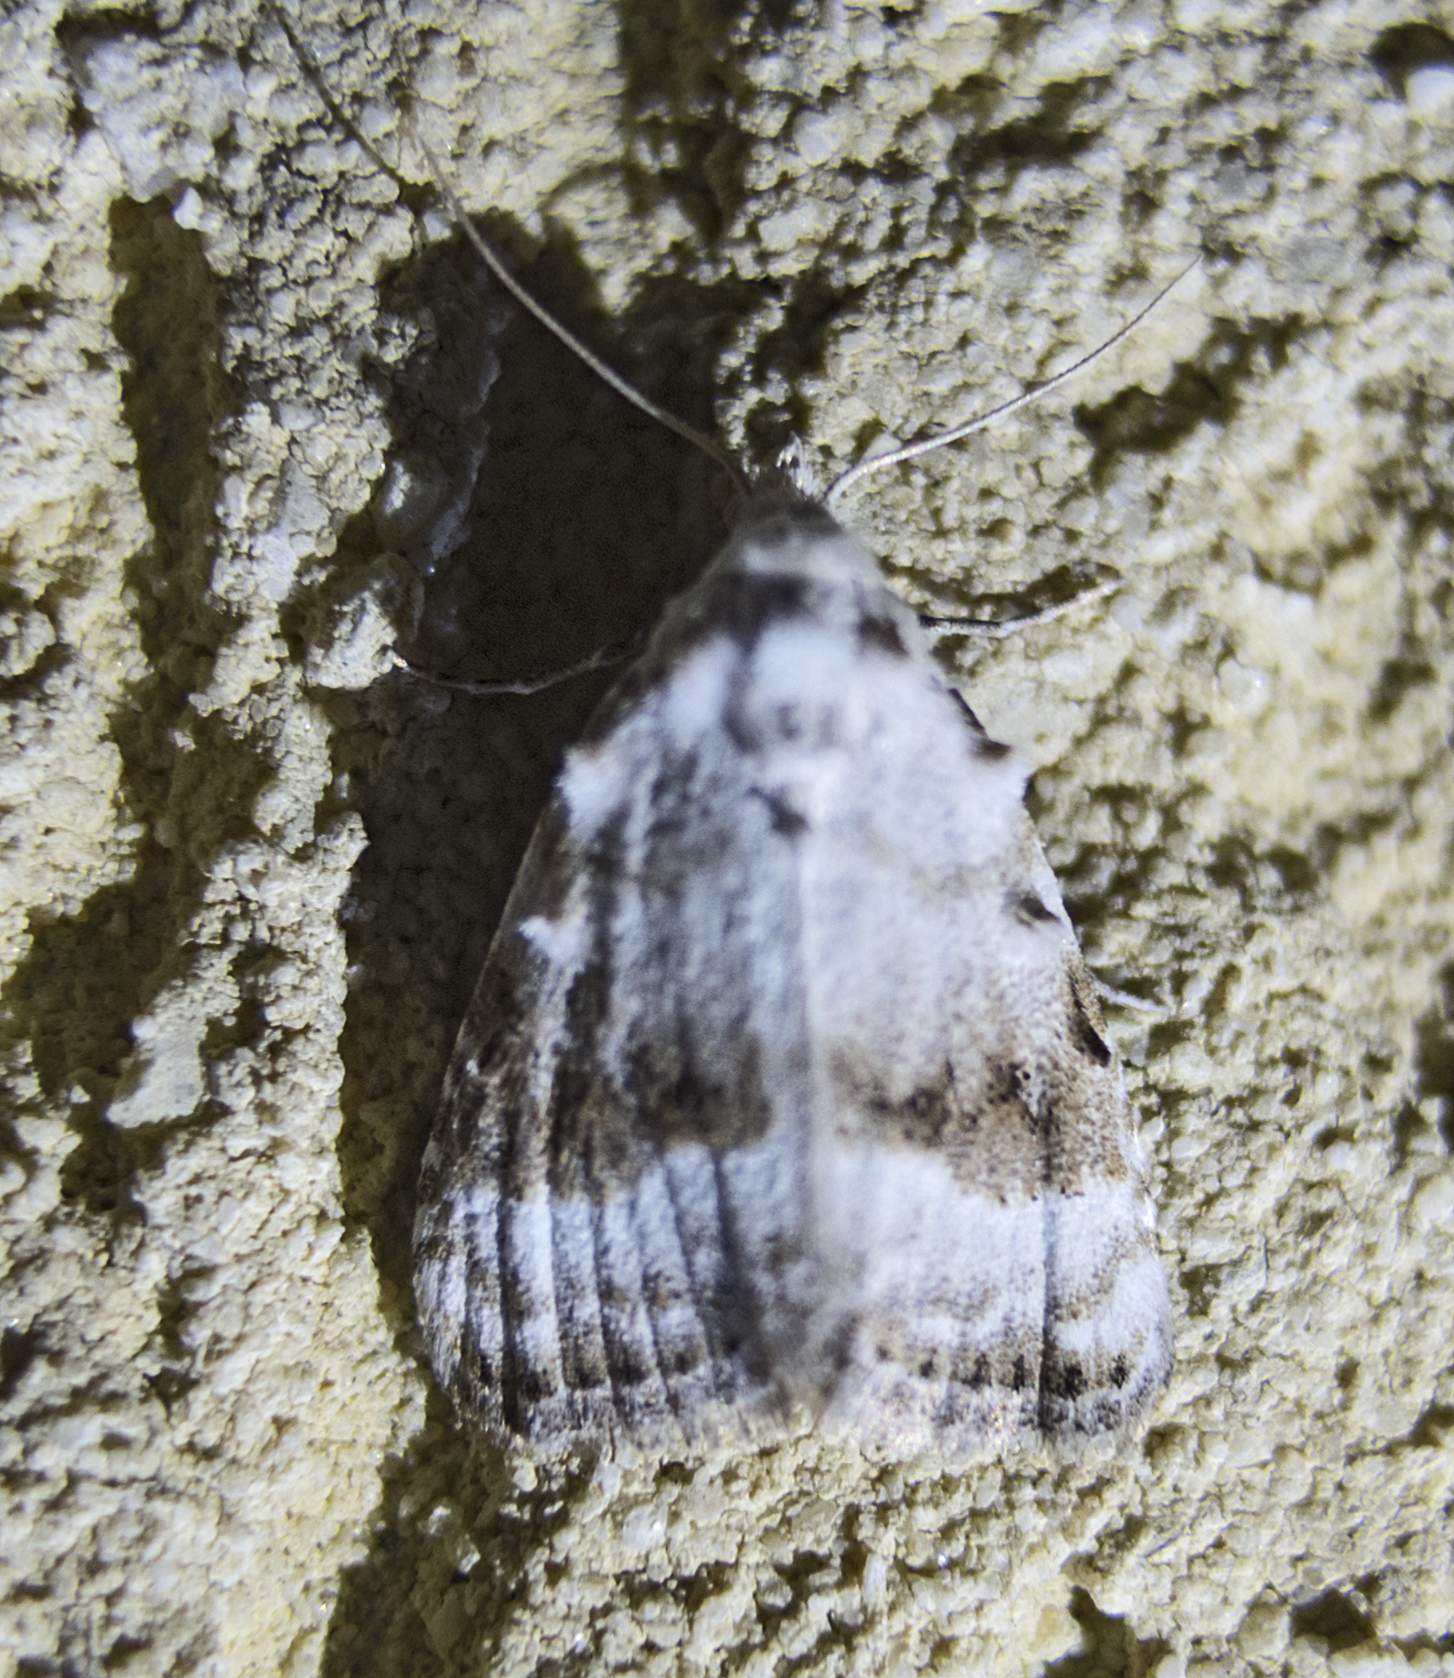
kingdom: Animalia
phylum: Arthropoda
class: Insecta
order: Lepidoptera
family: Nolidae
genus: Meganola
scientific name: Meganola albula
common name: Kent black arches
